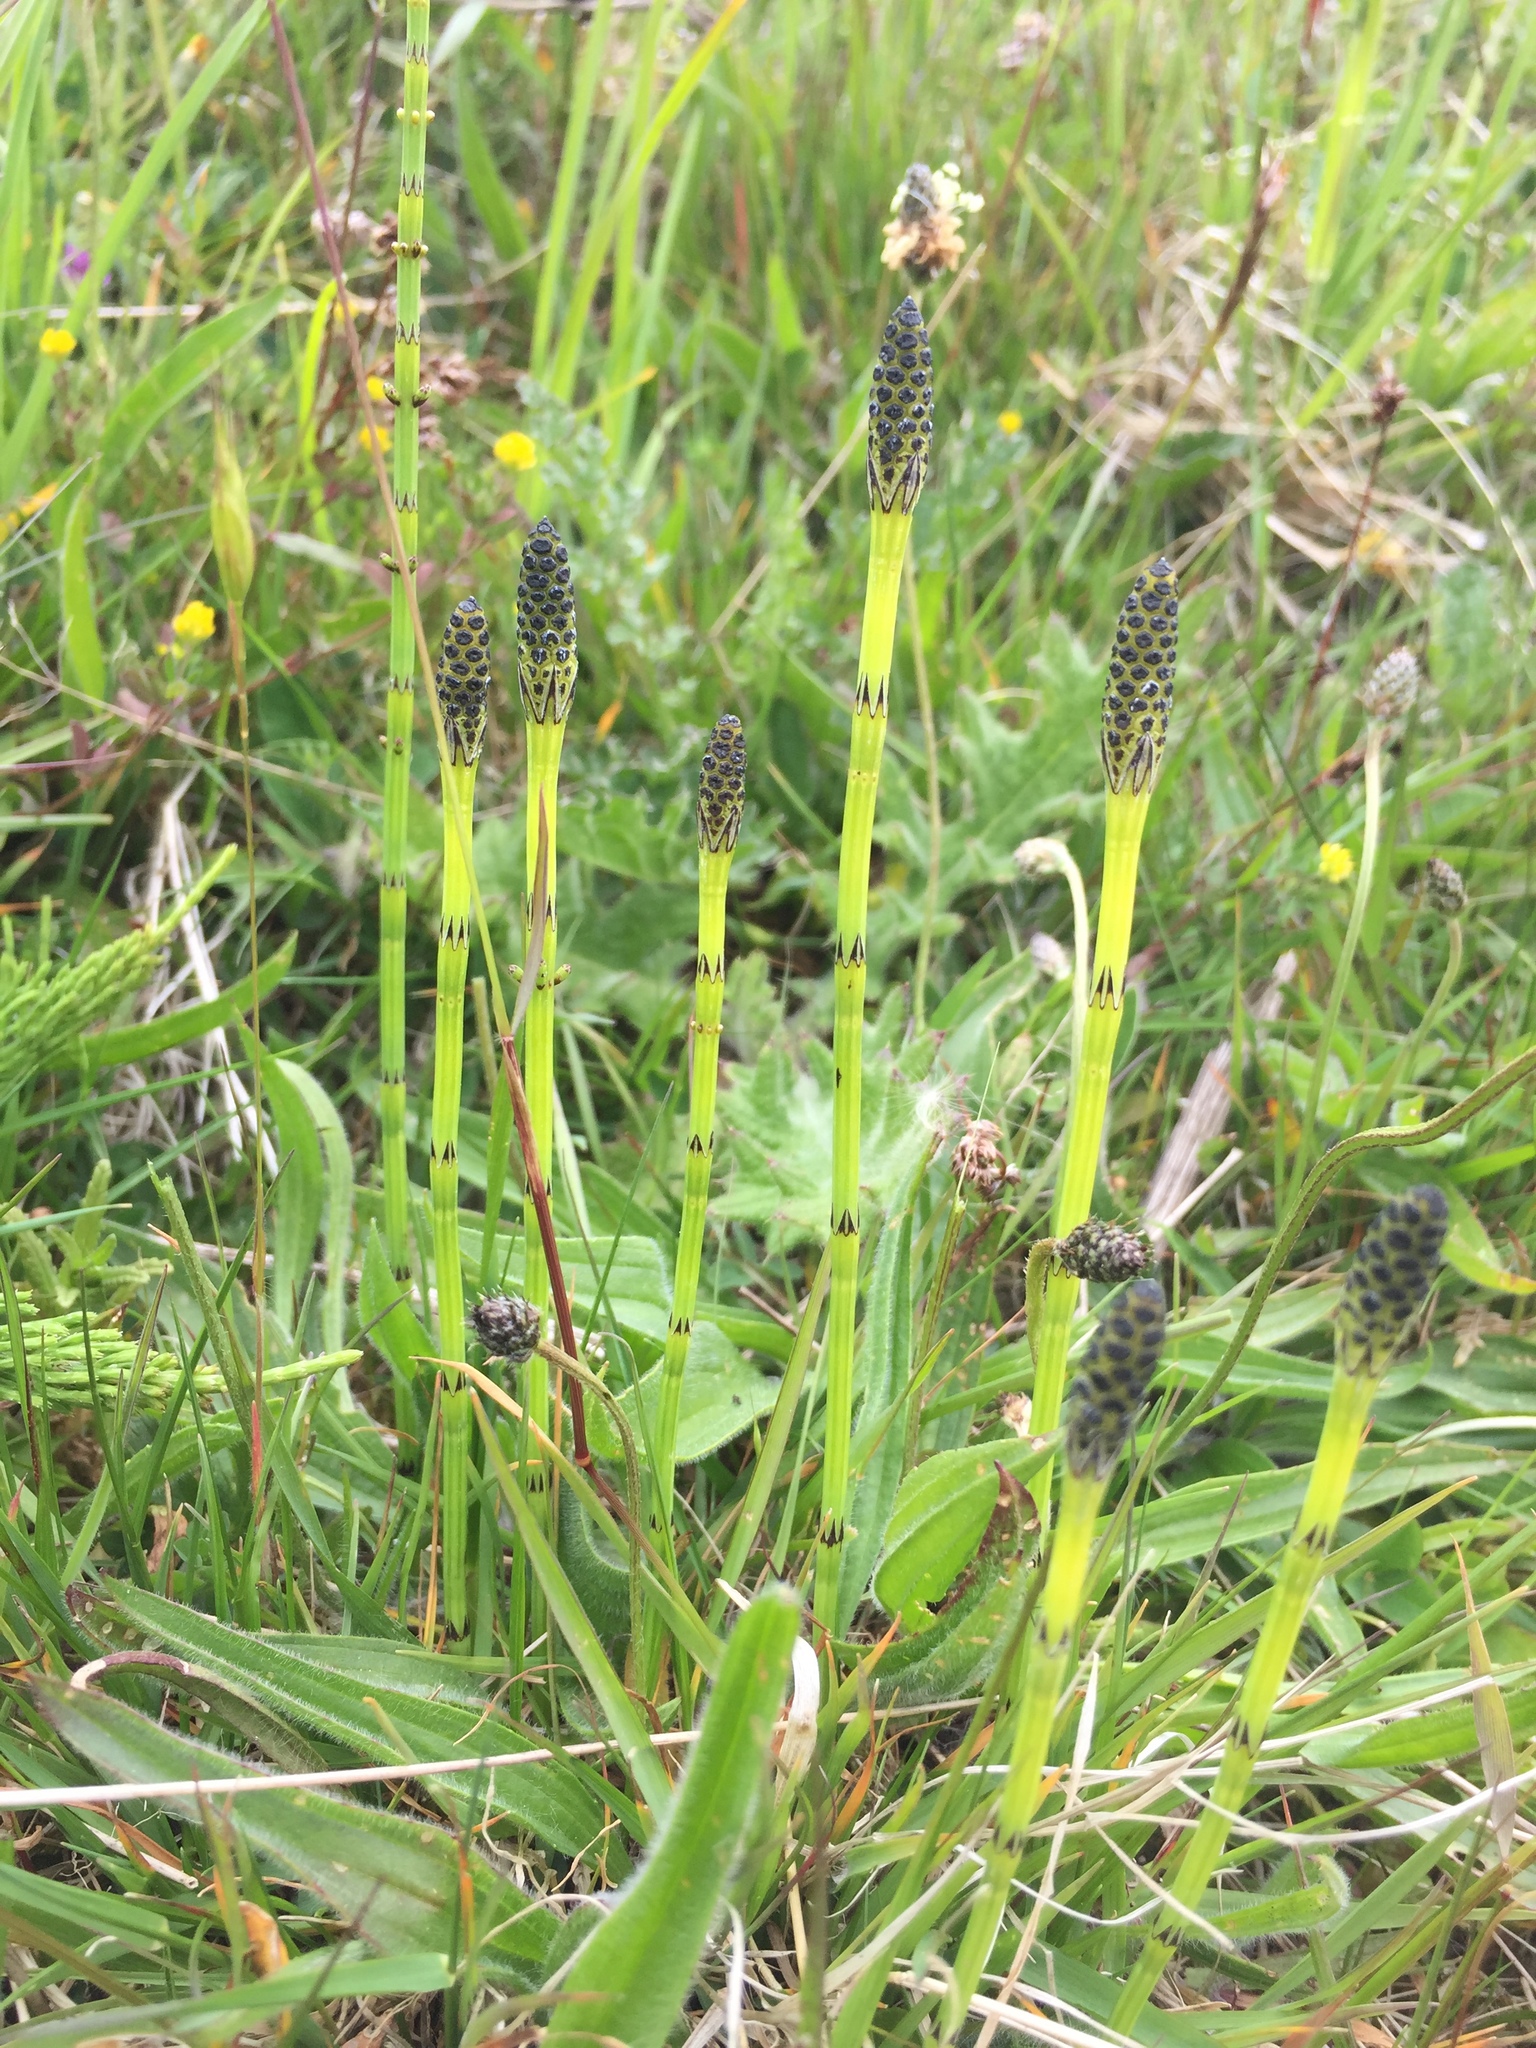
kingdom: Plantae
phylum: Tracheophyta
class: Polypodiopsida
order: Equisetales
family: Equisetaceae
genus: Equisetum
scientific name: Equisetum palustre
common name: Marsh horsetail
